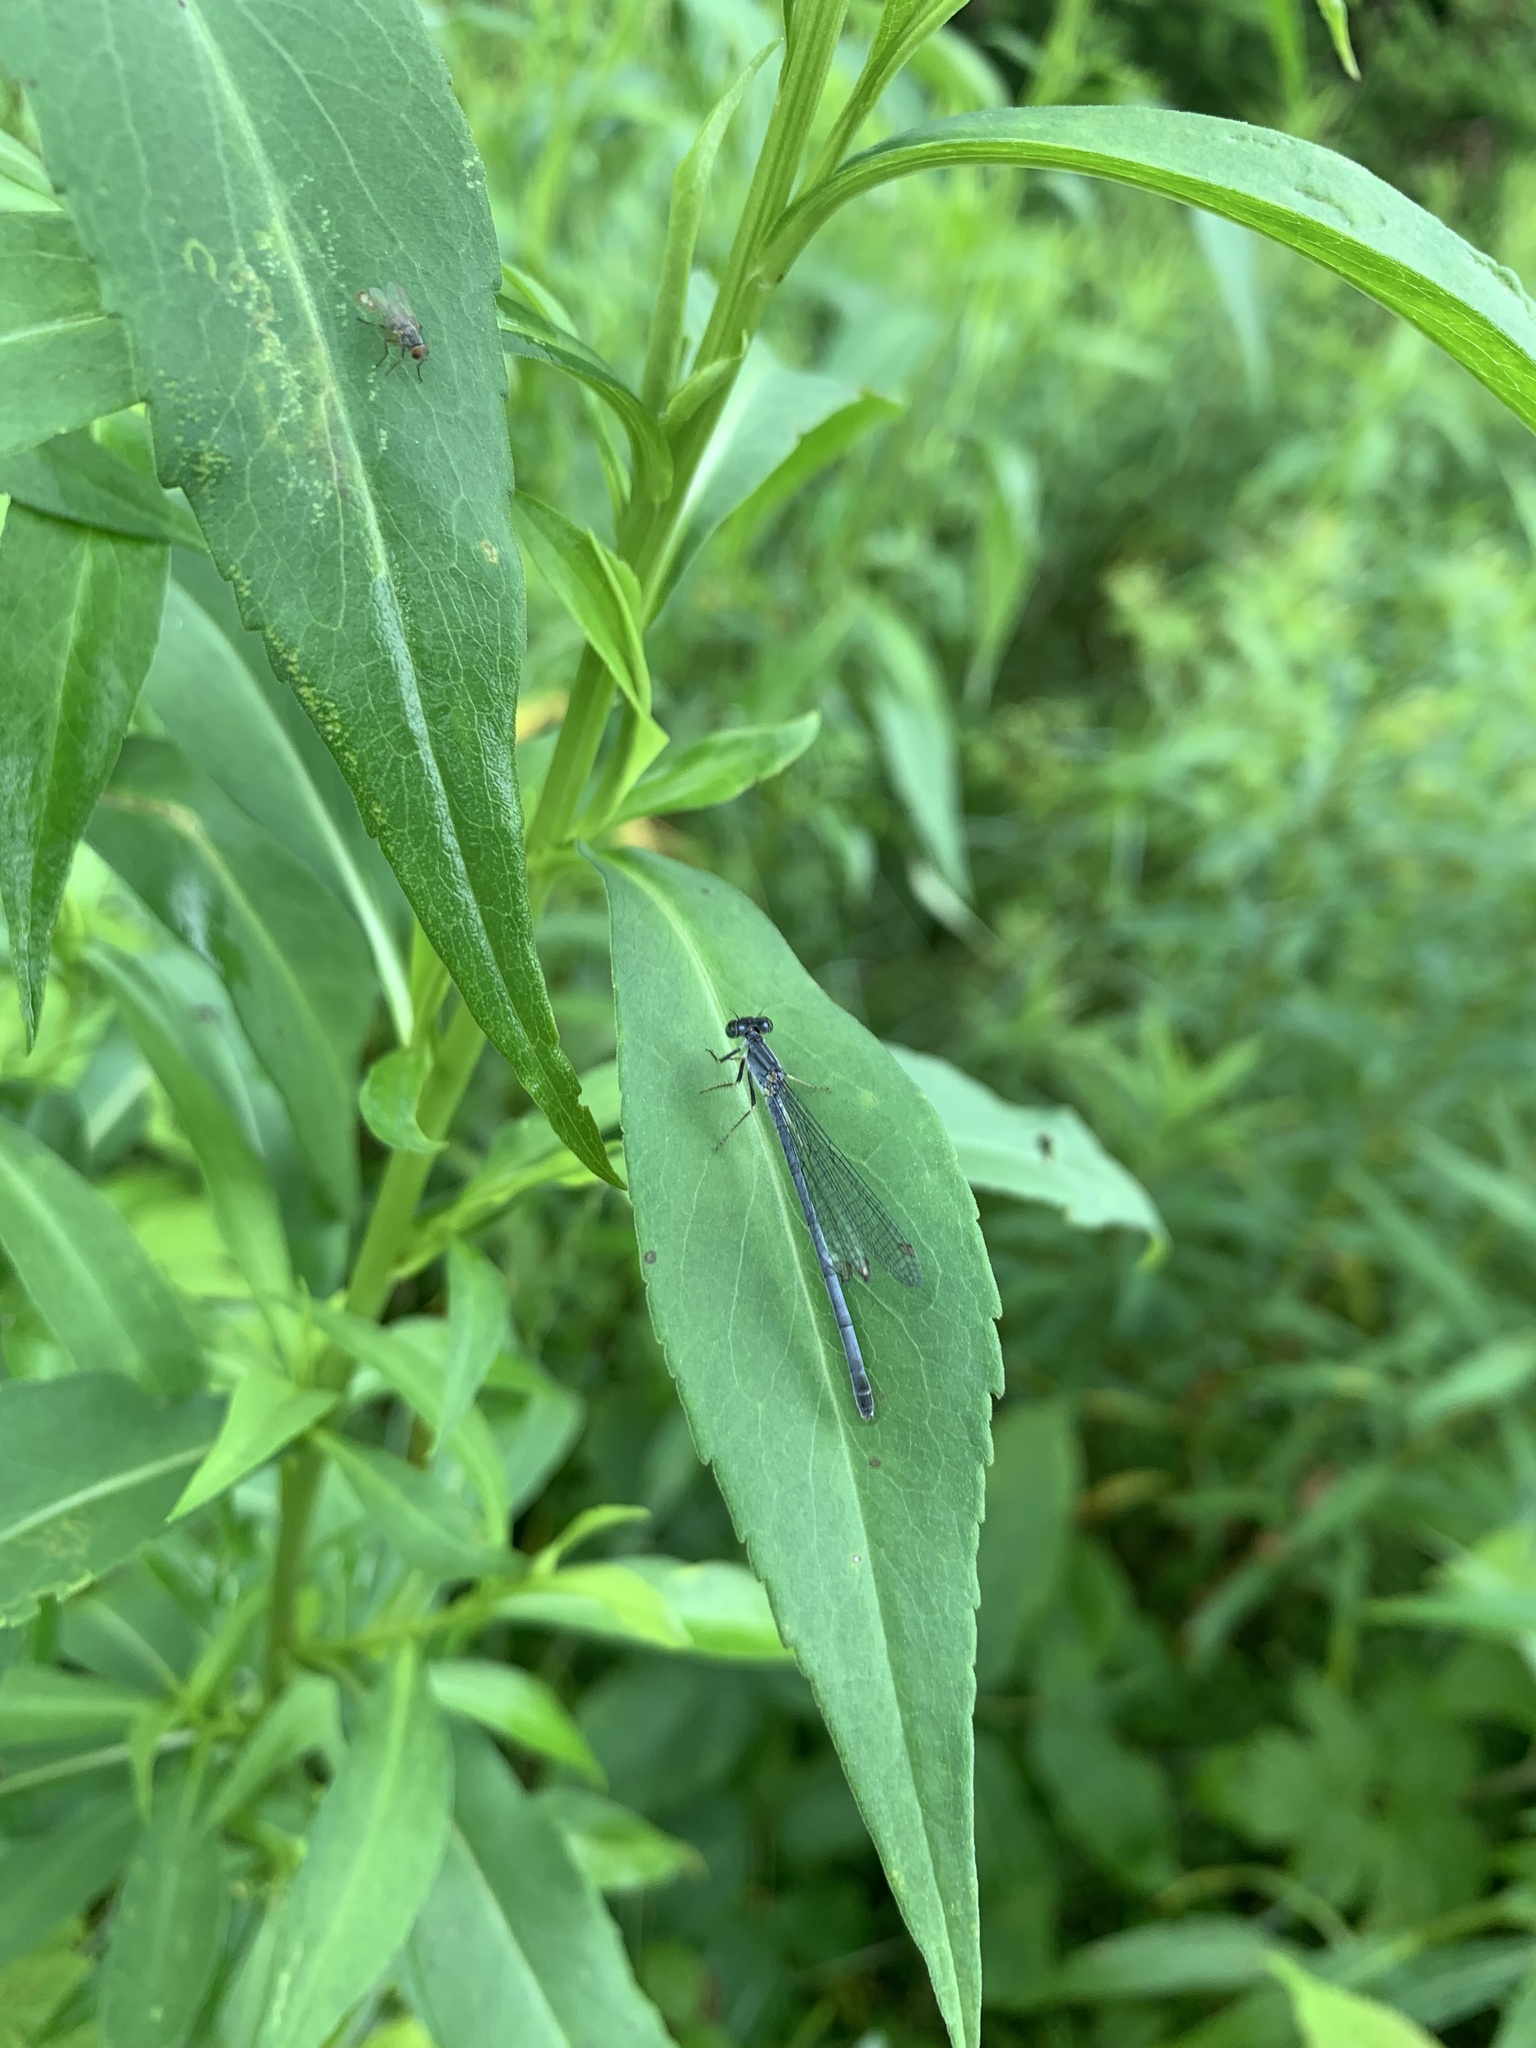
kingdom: Animalia
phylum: Arthropoda
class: Insecta
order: Odonata
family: Coenagrionidae
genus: Ischnura
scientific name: Ischnura verticalis
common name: Eastern forktail
